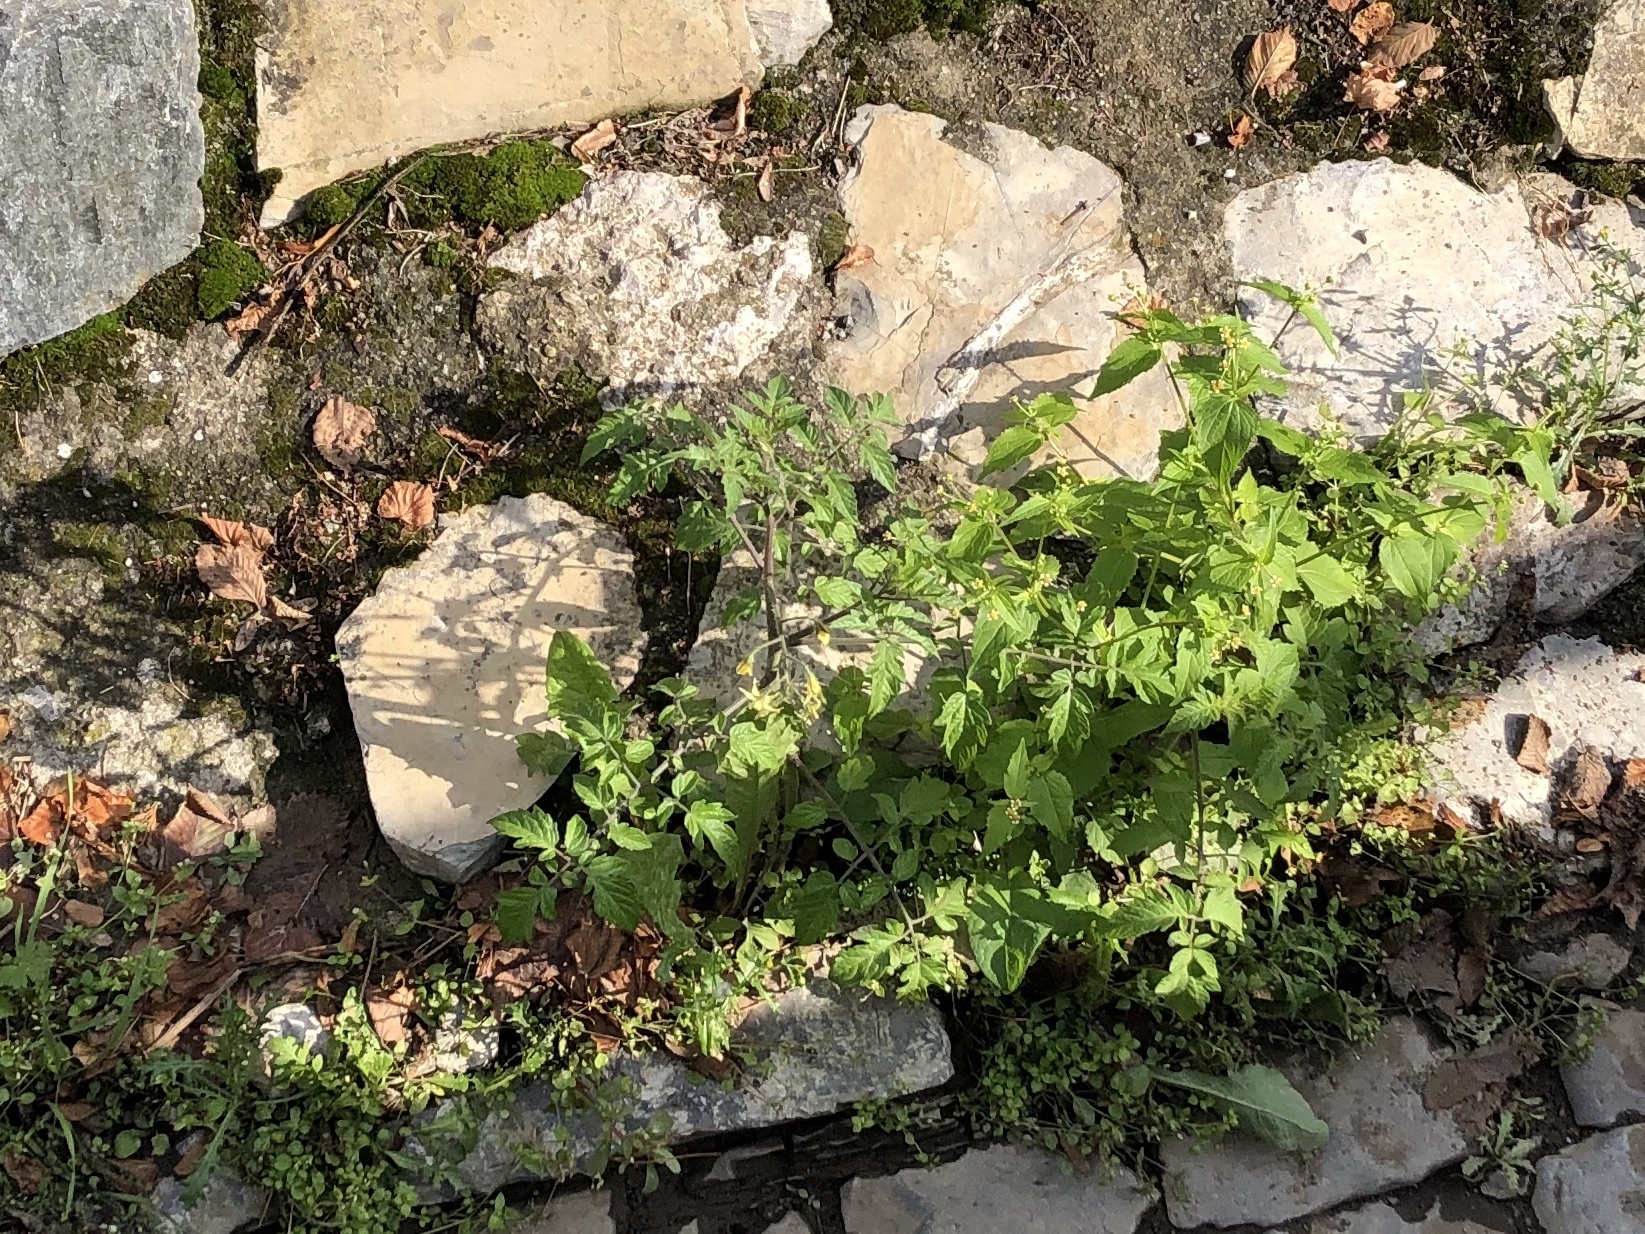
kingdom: Plantae
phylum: Tracheophyta
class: Magnoliopsida
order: Solanales
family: Solanaceae
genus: Solanum
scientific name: Solanum lycopersicum
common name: Garden tomato
